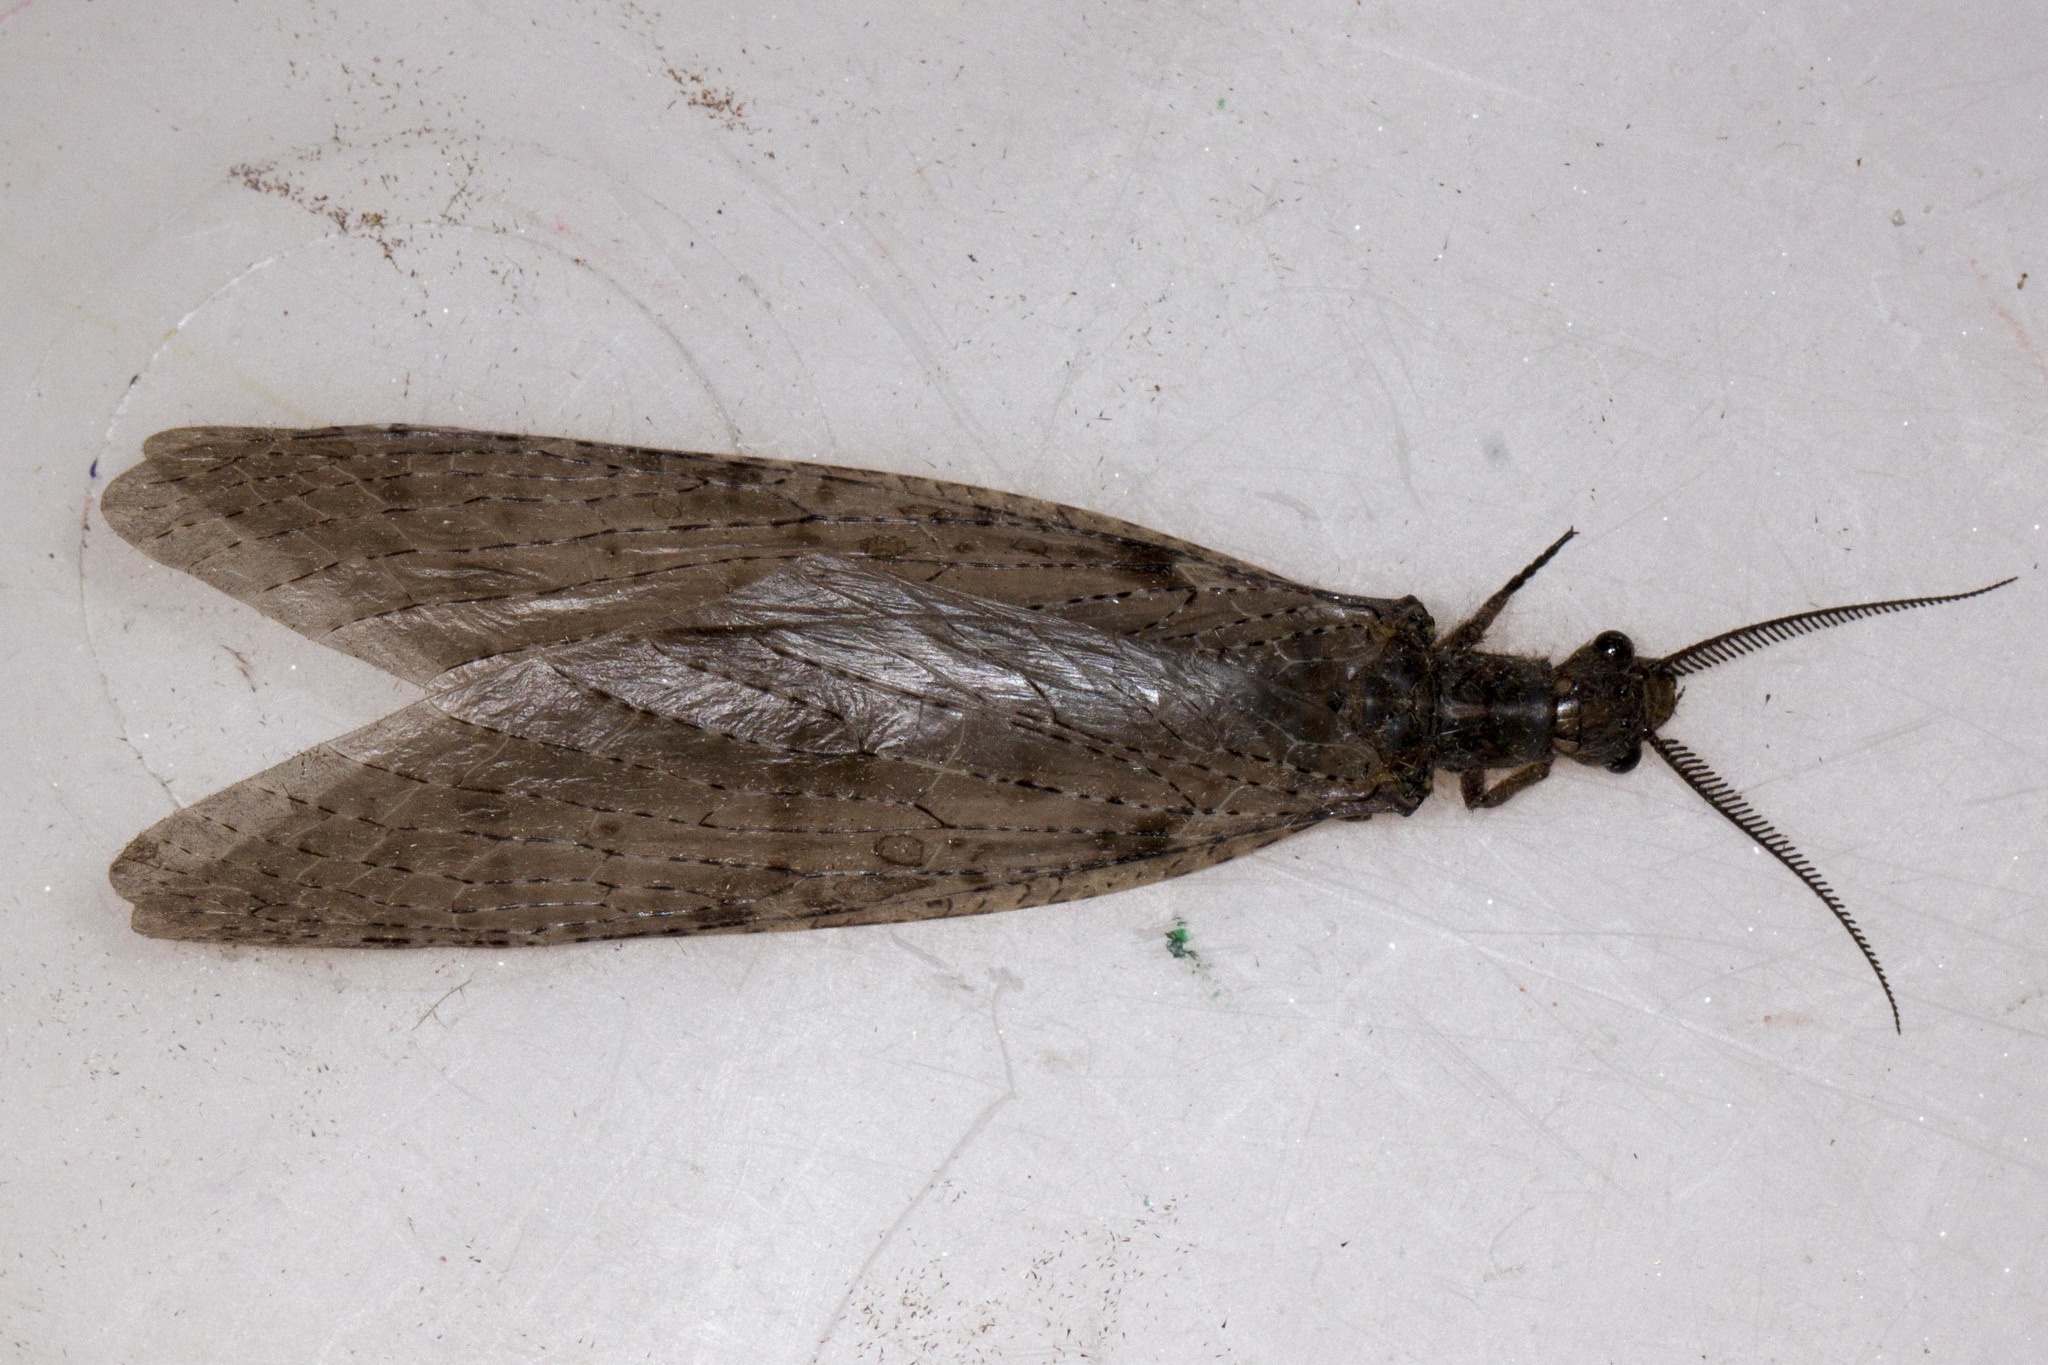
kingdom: Animalia
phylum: Arthropoda
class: Insecta
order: Megaloptera
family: Corydalidae
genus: Chauliodes
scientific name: Chauliodes pectinicornis
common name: Summer fishfly
